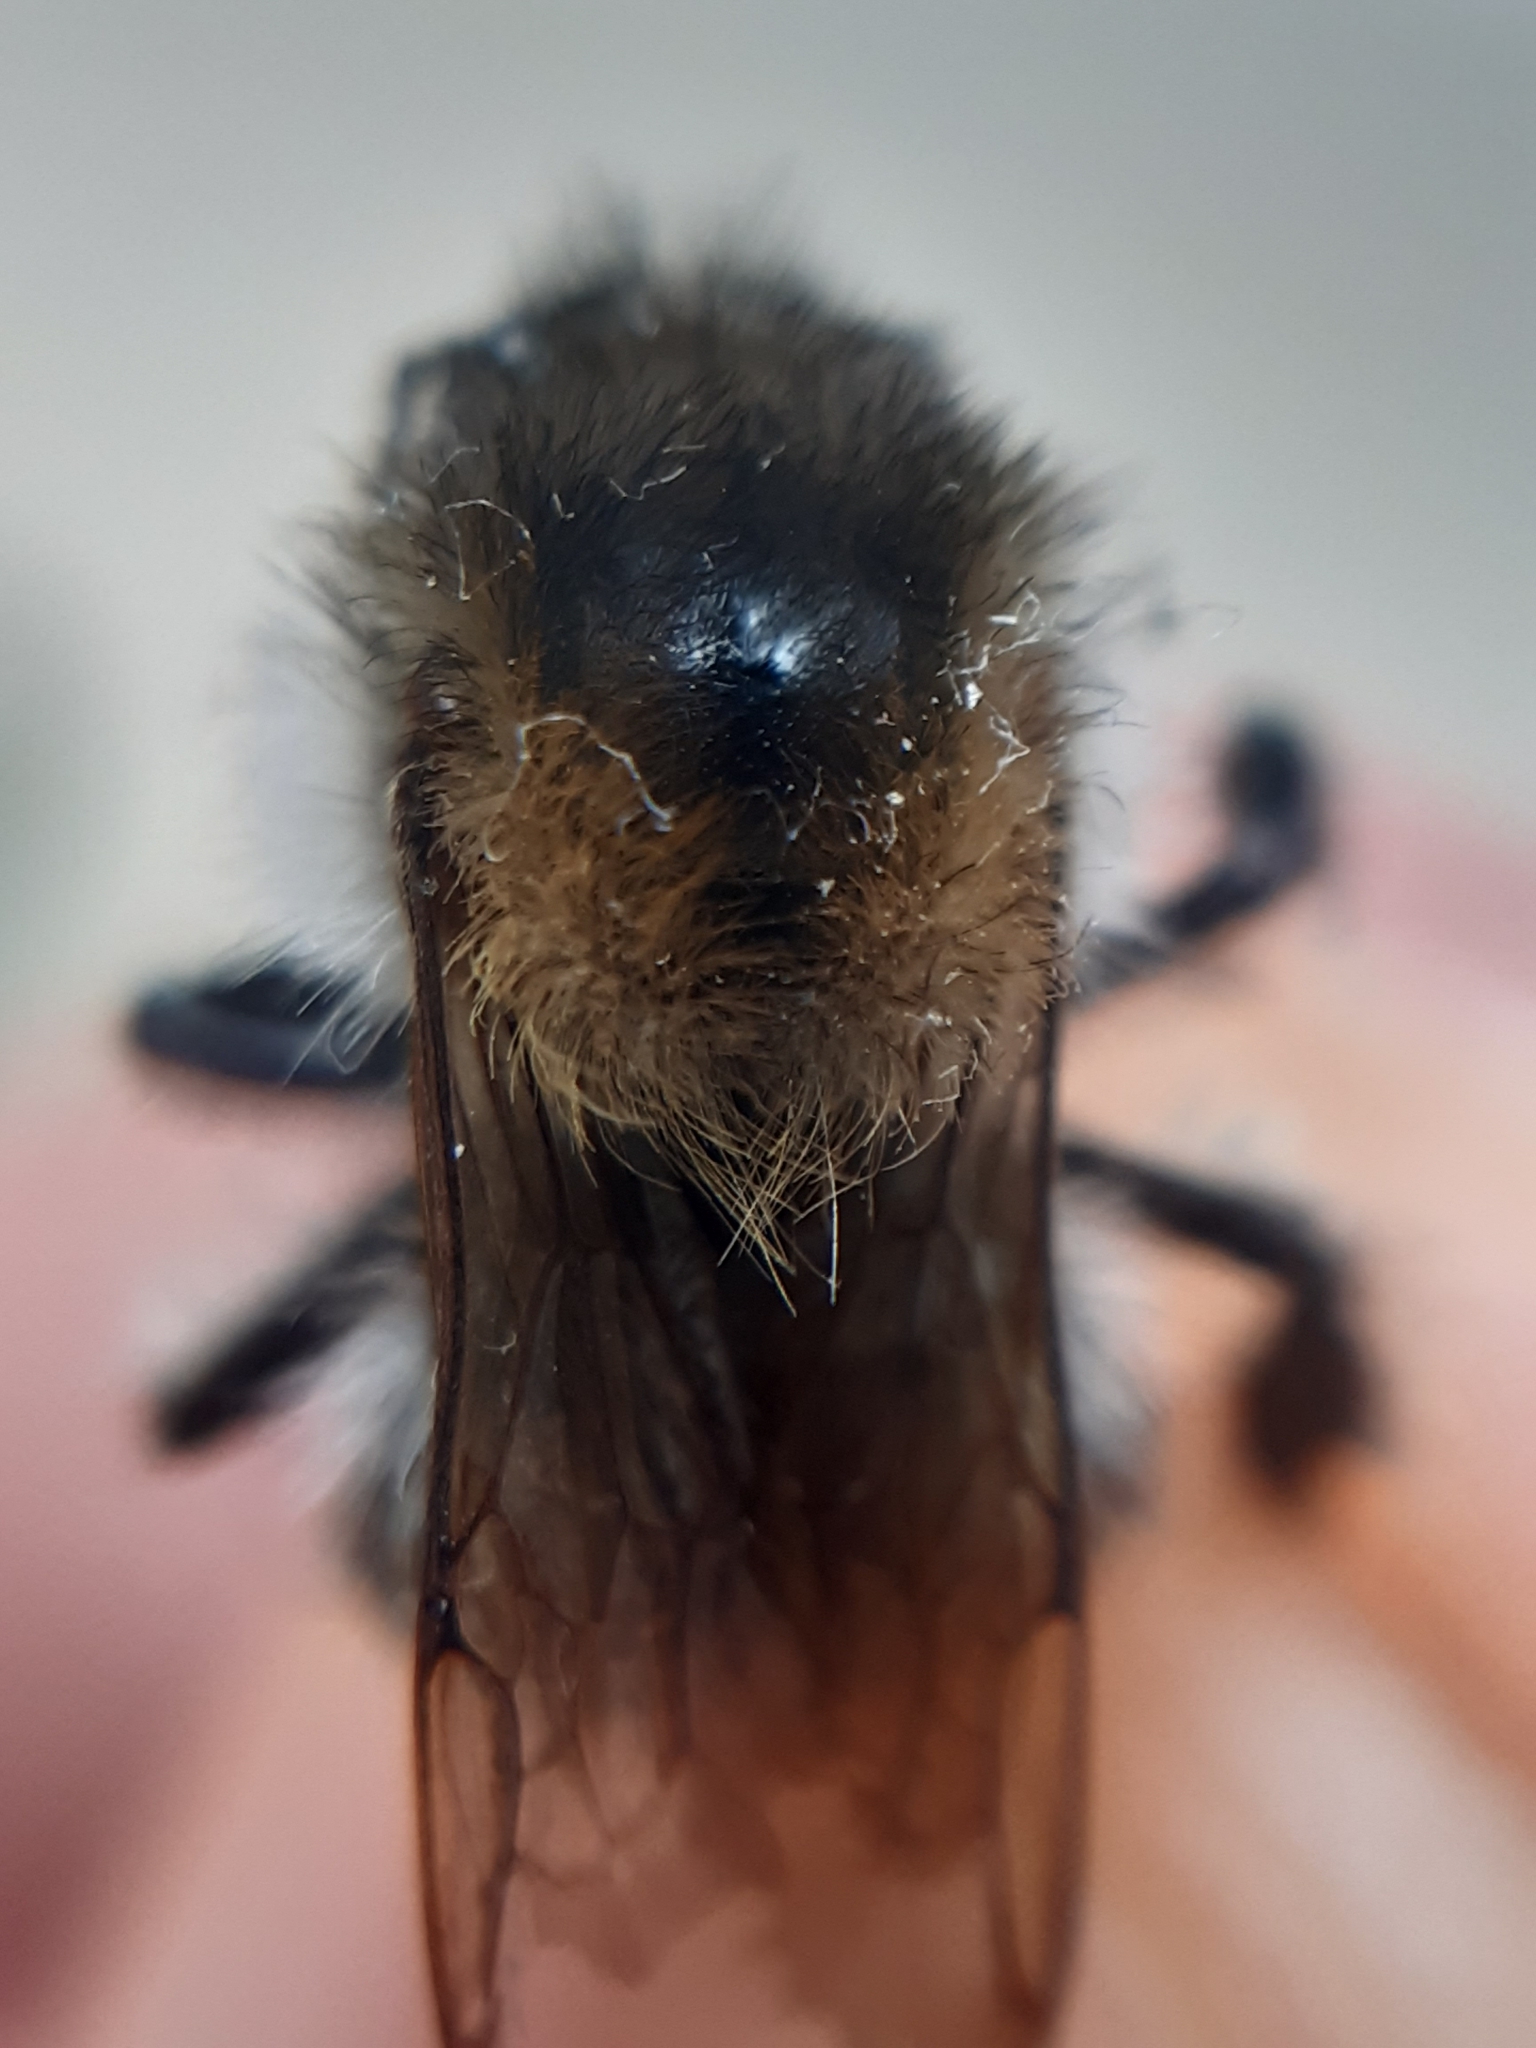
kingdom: Animalia
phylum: Arthropoda
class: Insecta
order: Hymenoptera
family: Apidae
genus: Bombus
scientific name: Bombus pascuorum
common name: Common carder bee
